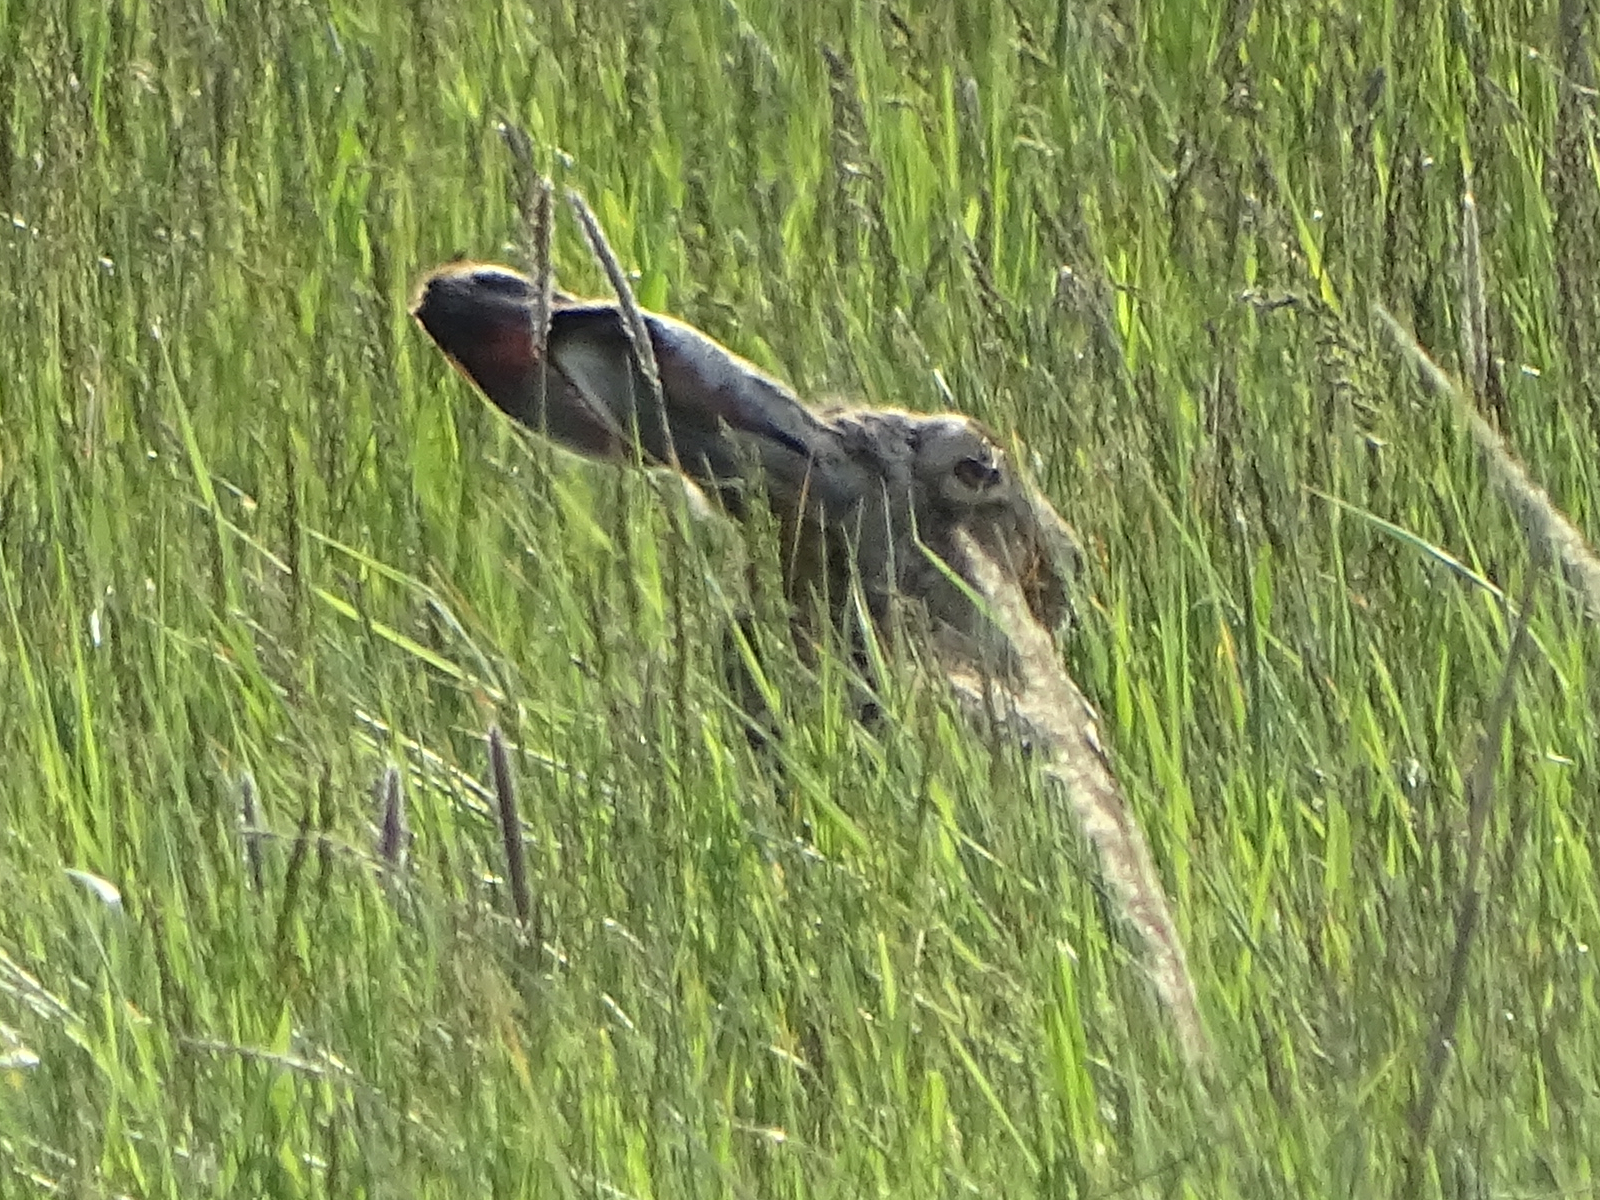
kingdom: Animalia
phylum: Chordata
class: Mammalia
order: Lagomorpha
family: Leporidae
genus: Lepus
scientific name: Lepus europaeus
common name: European hare
